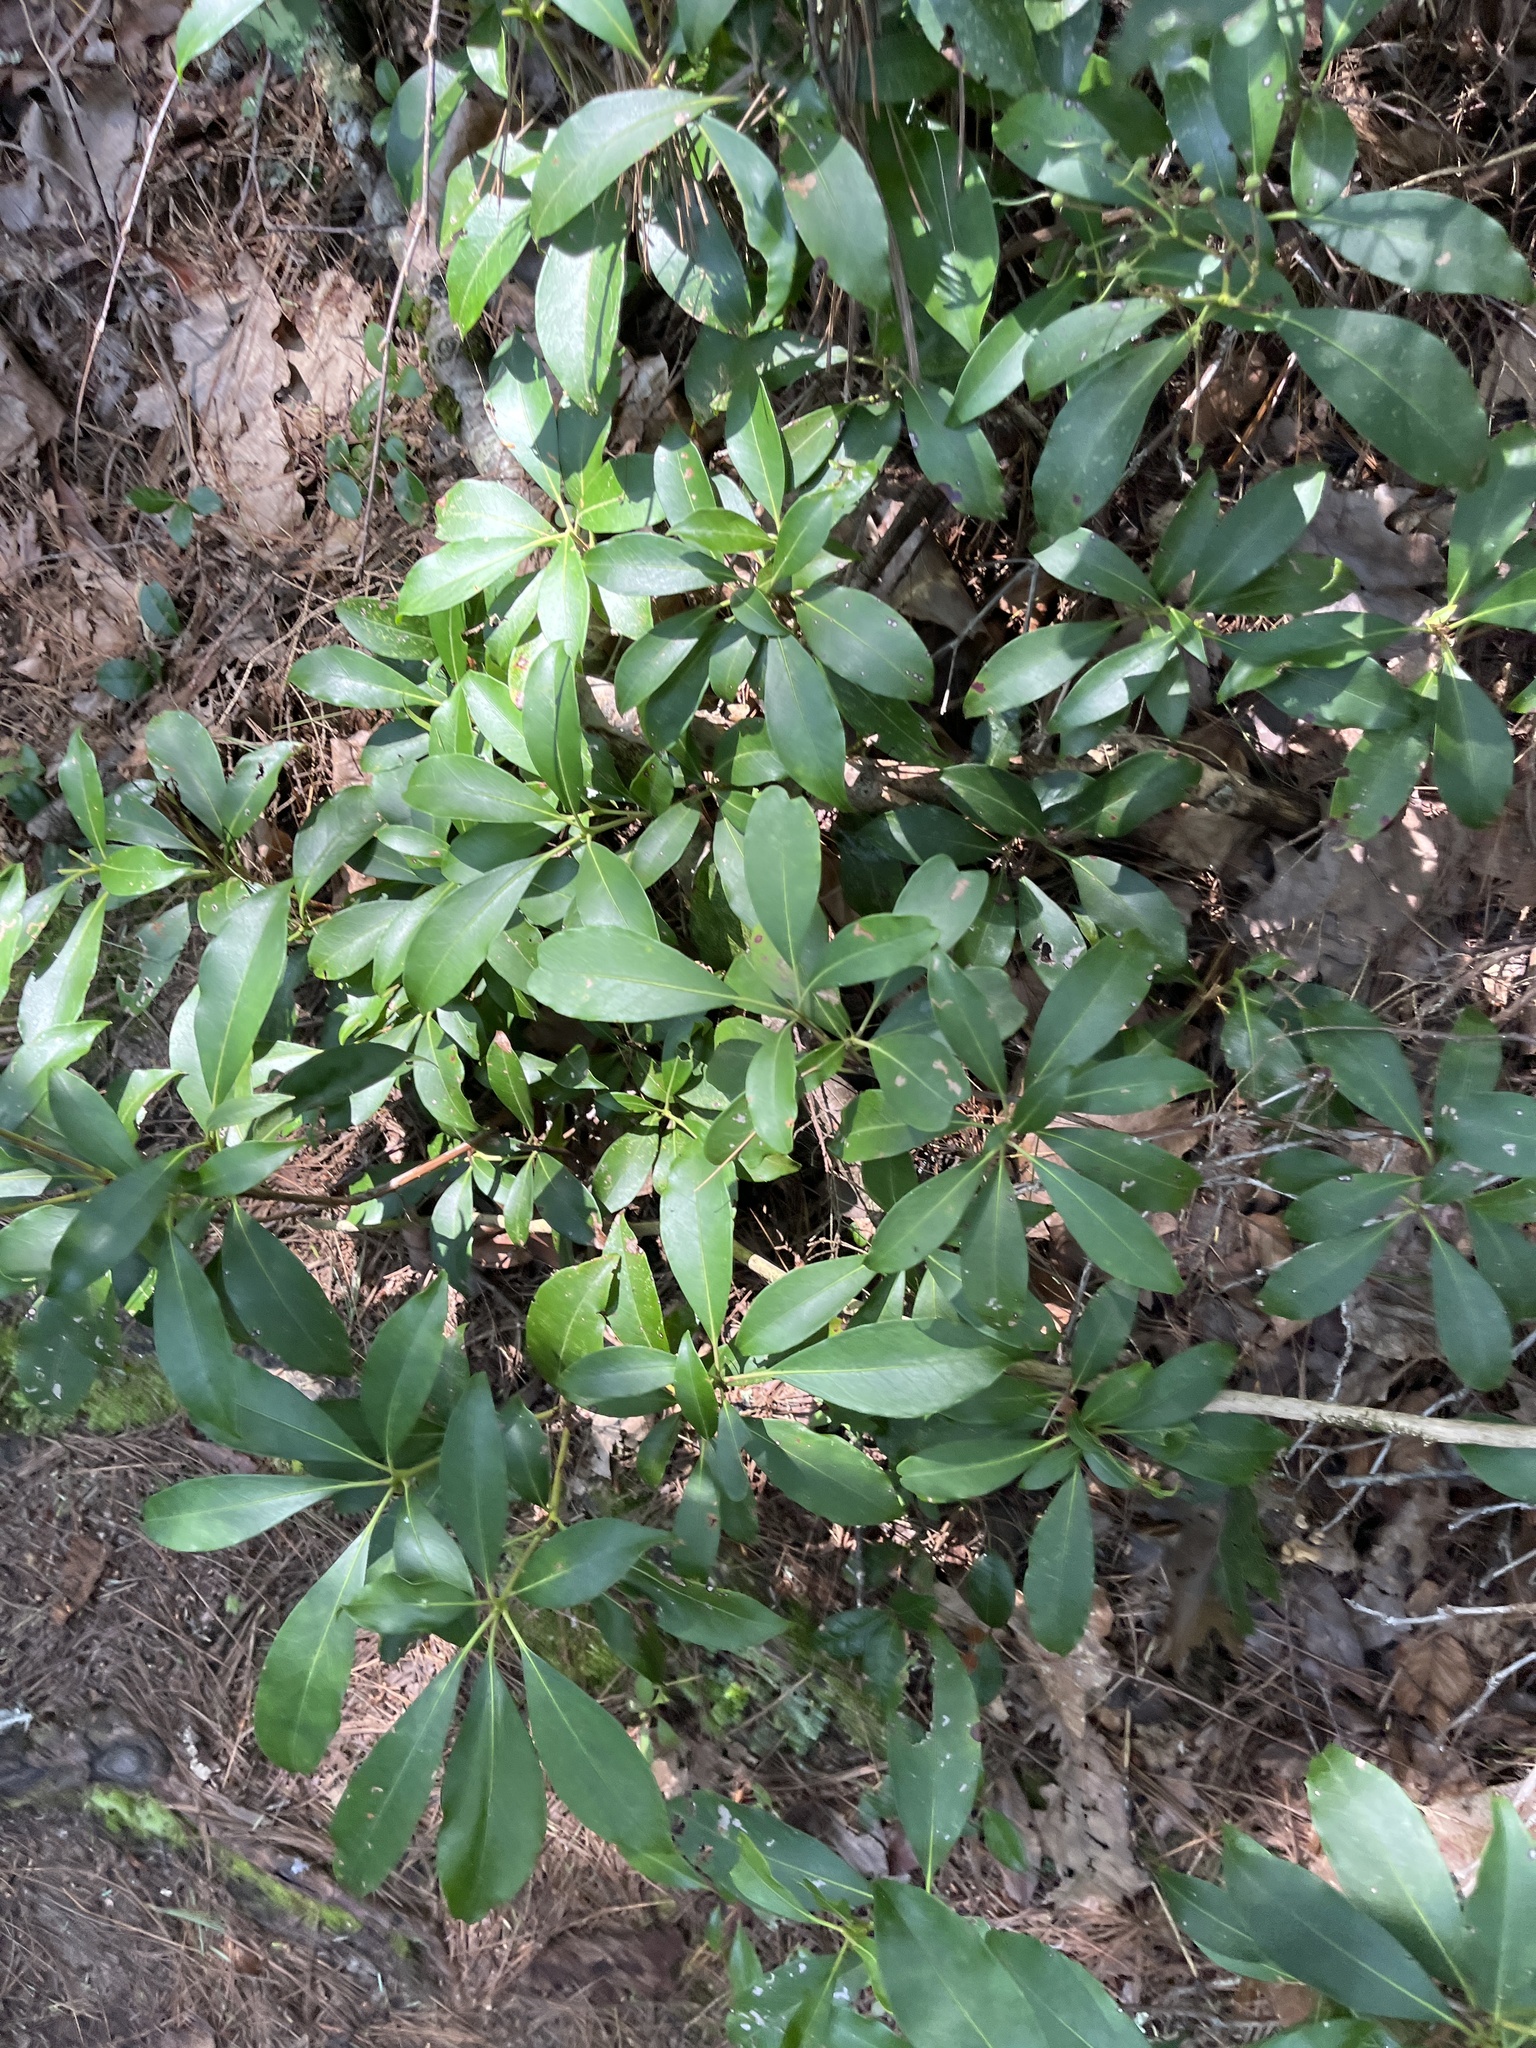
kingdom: Plantae
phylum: Tracheophyta
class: Magnoliopsida
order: Ericales
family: Ericaceae
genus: Kalmia
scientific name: Kalmia latifolia
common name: Mountain-laurel
